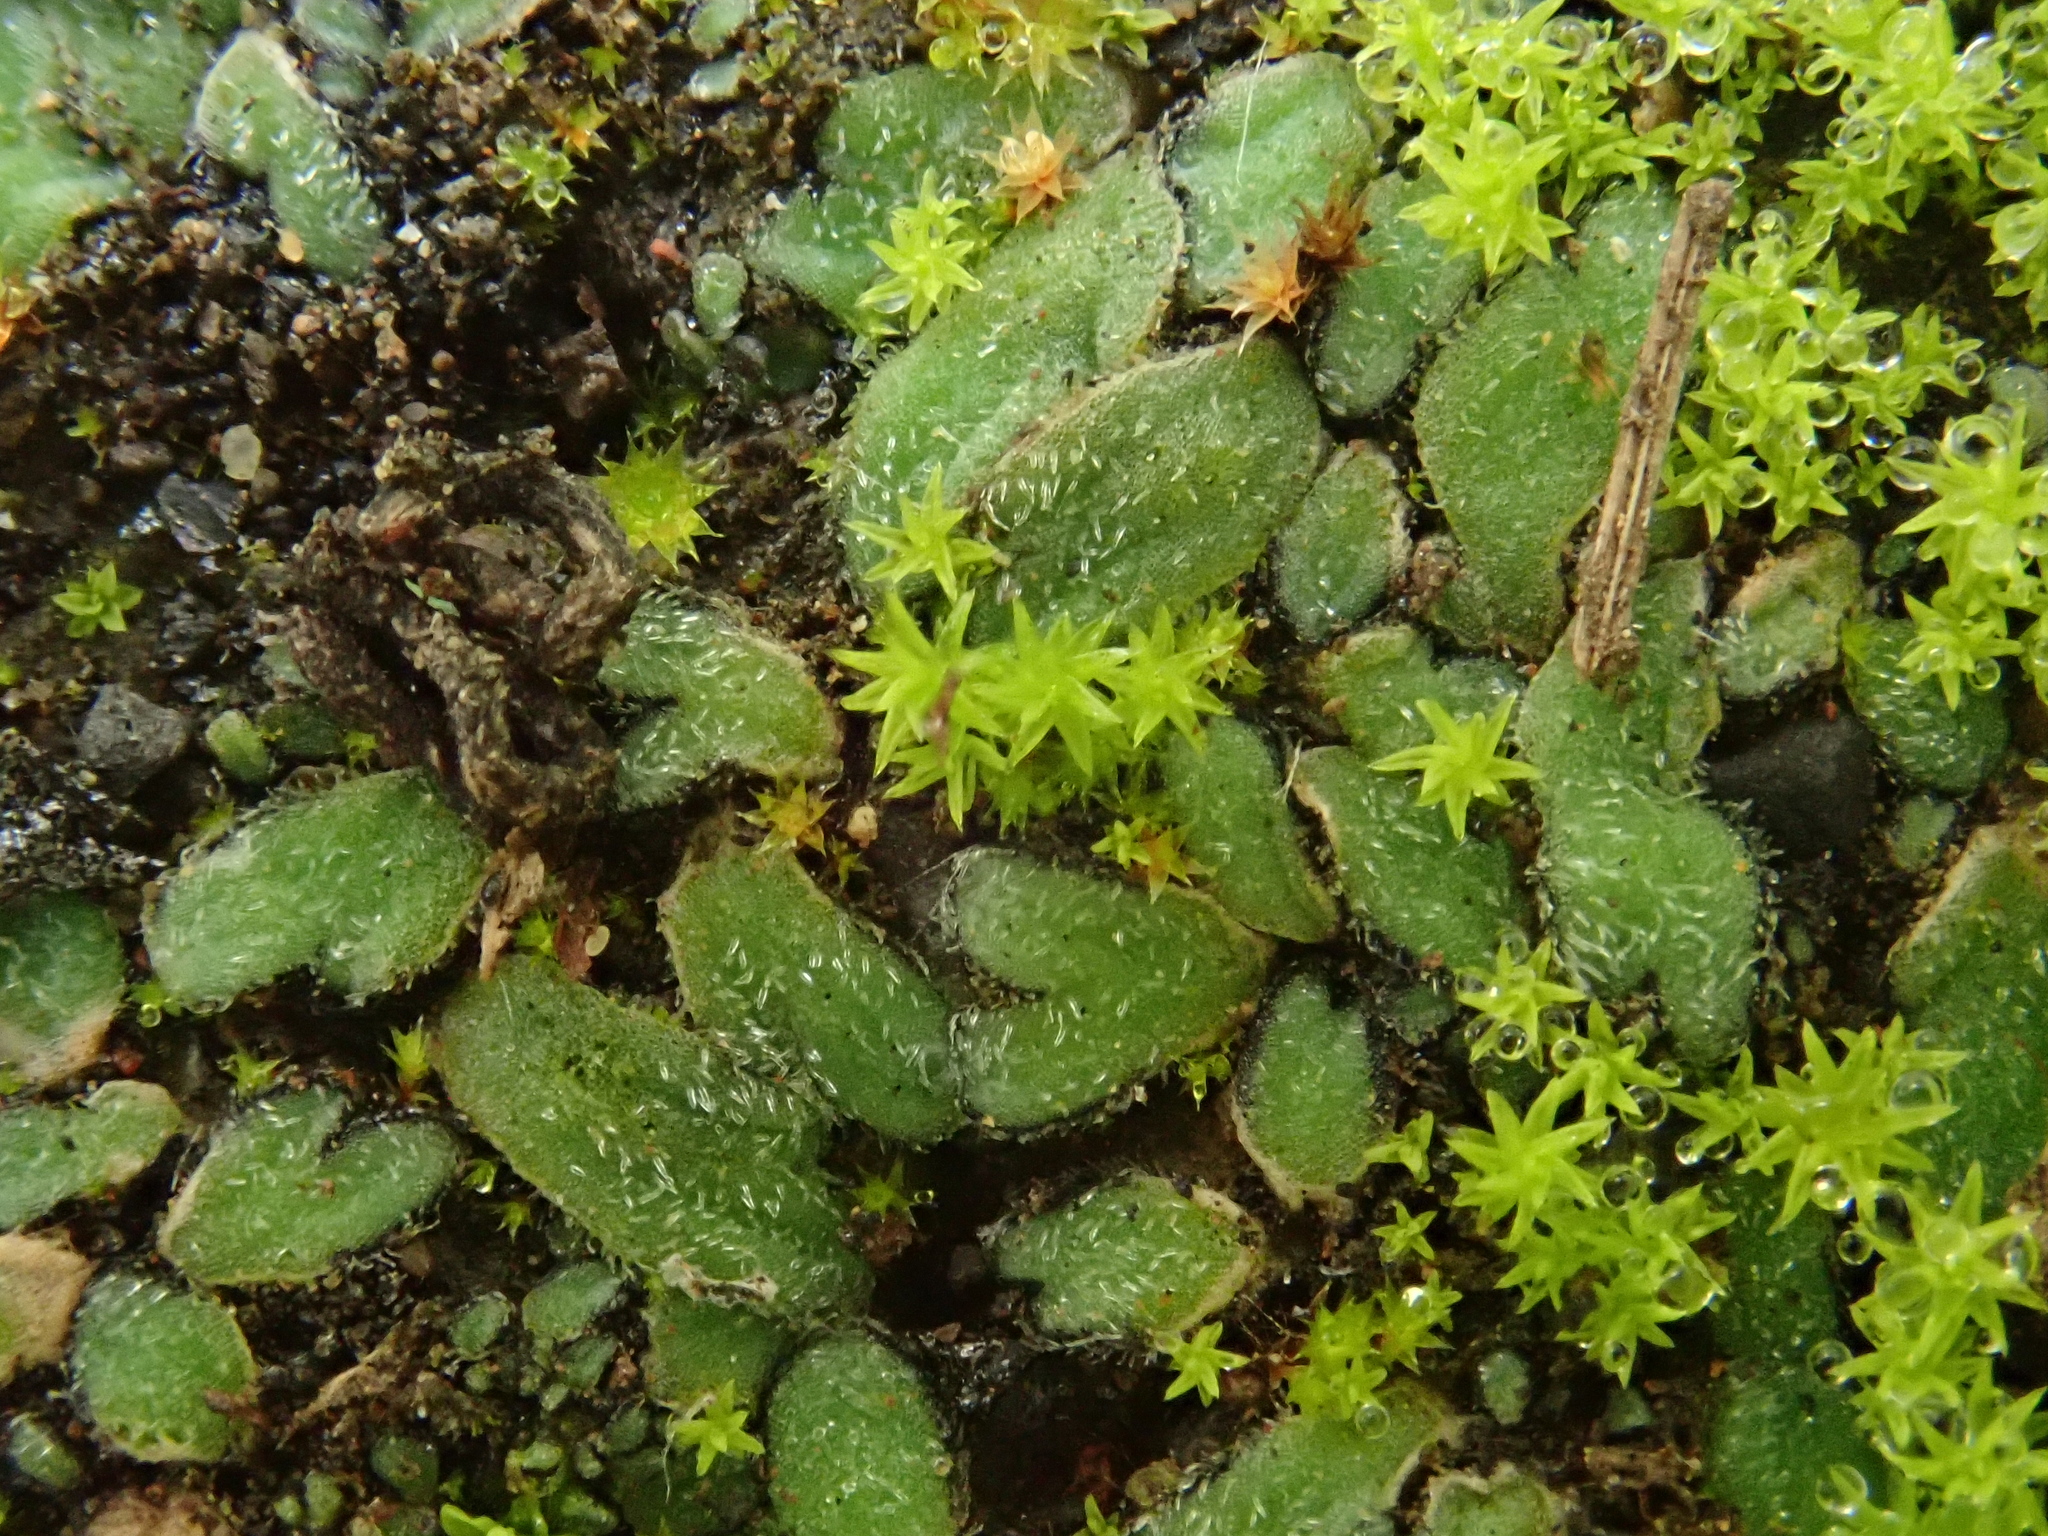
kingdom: Plantae
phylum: Marchantiophyta
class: Marchantiopsida
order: Marchantiales
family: Ricciaceae
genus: Riccia
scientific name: Riccia atromarginata
